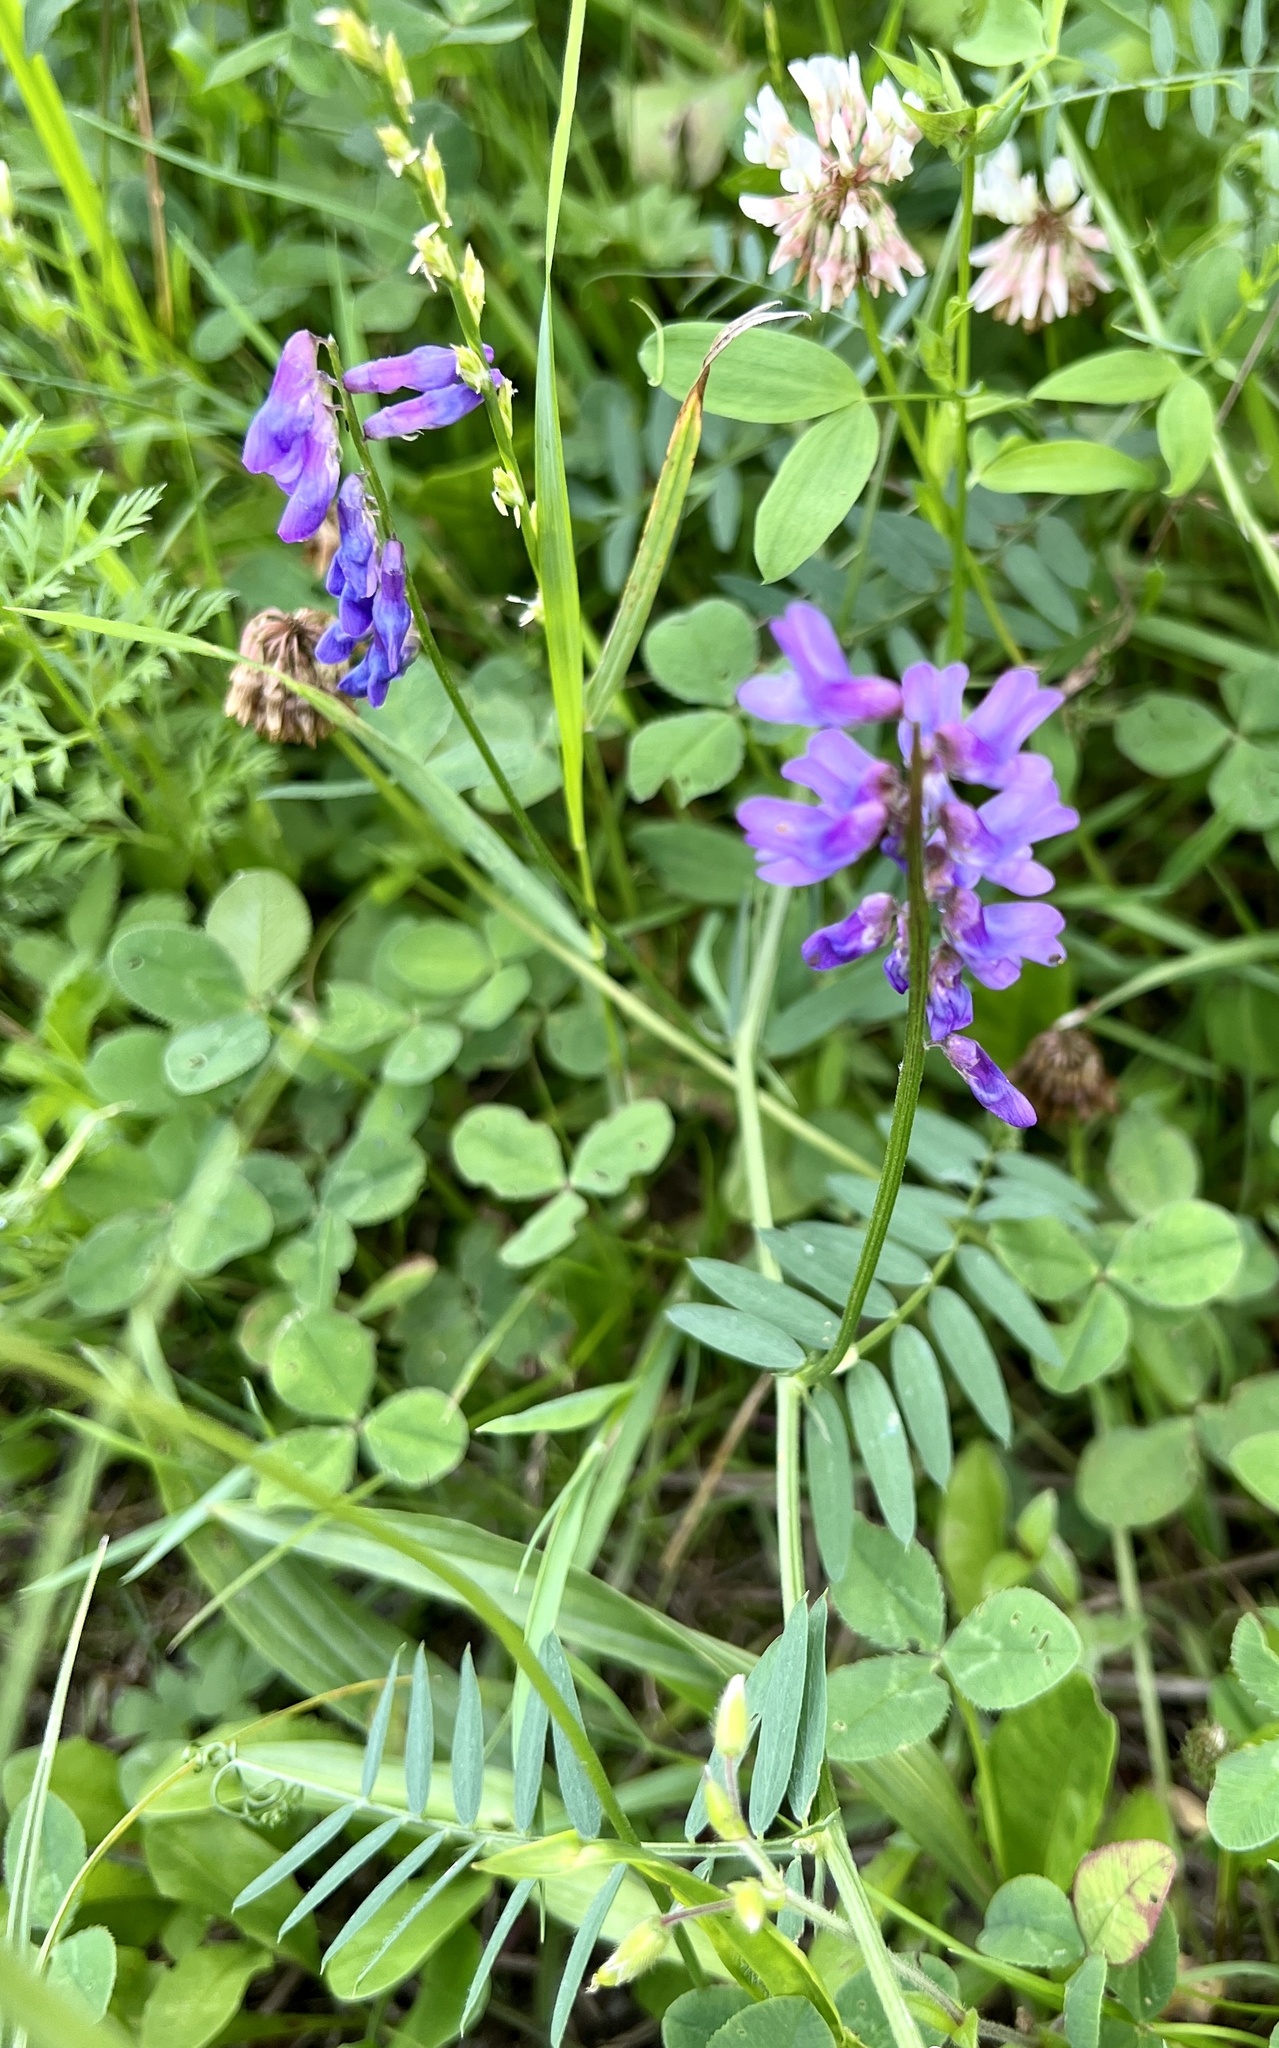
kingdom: Plantae
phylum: Tracheophyta
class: Magnoliopsida
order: Fabales
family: Fabaceae
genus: Vicia
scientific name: Vicia cracca
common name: Bird vetch
